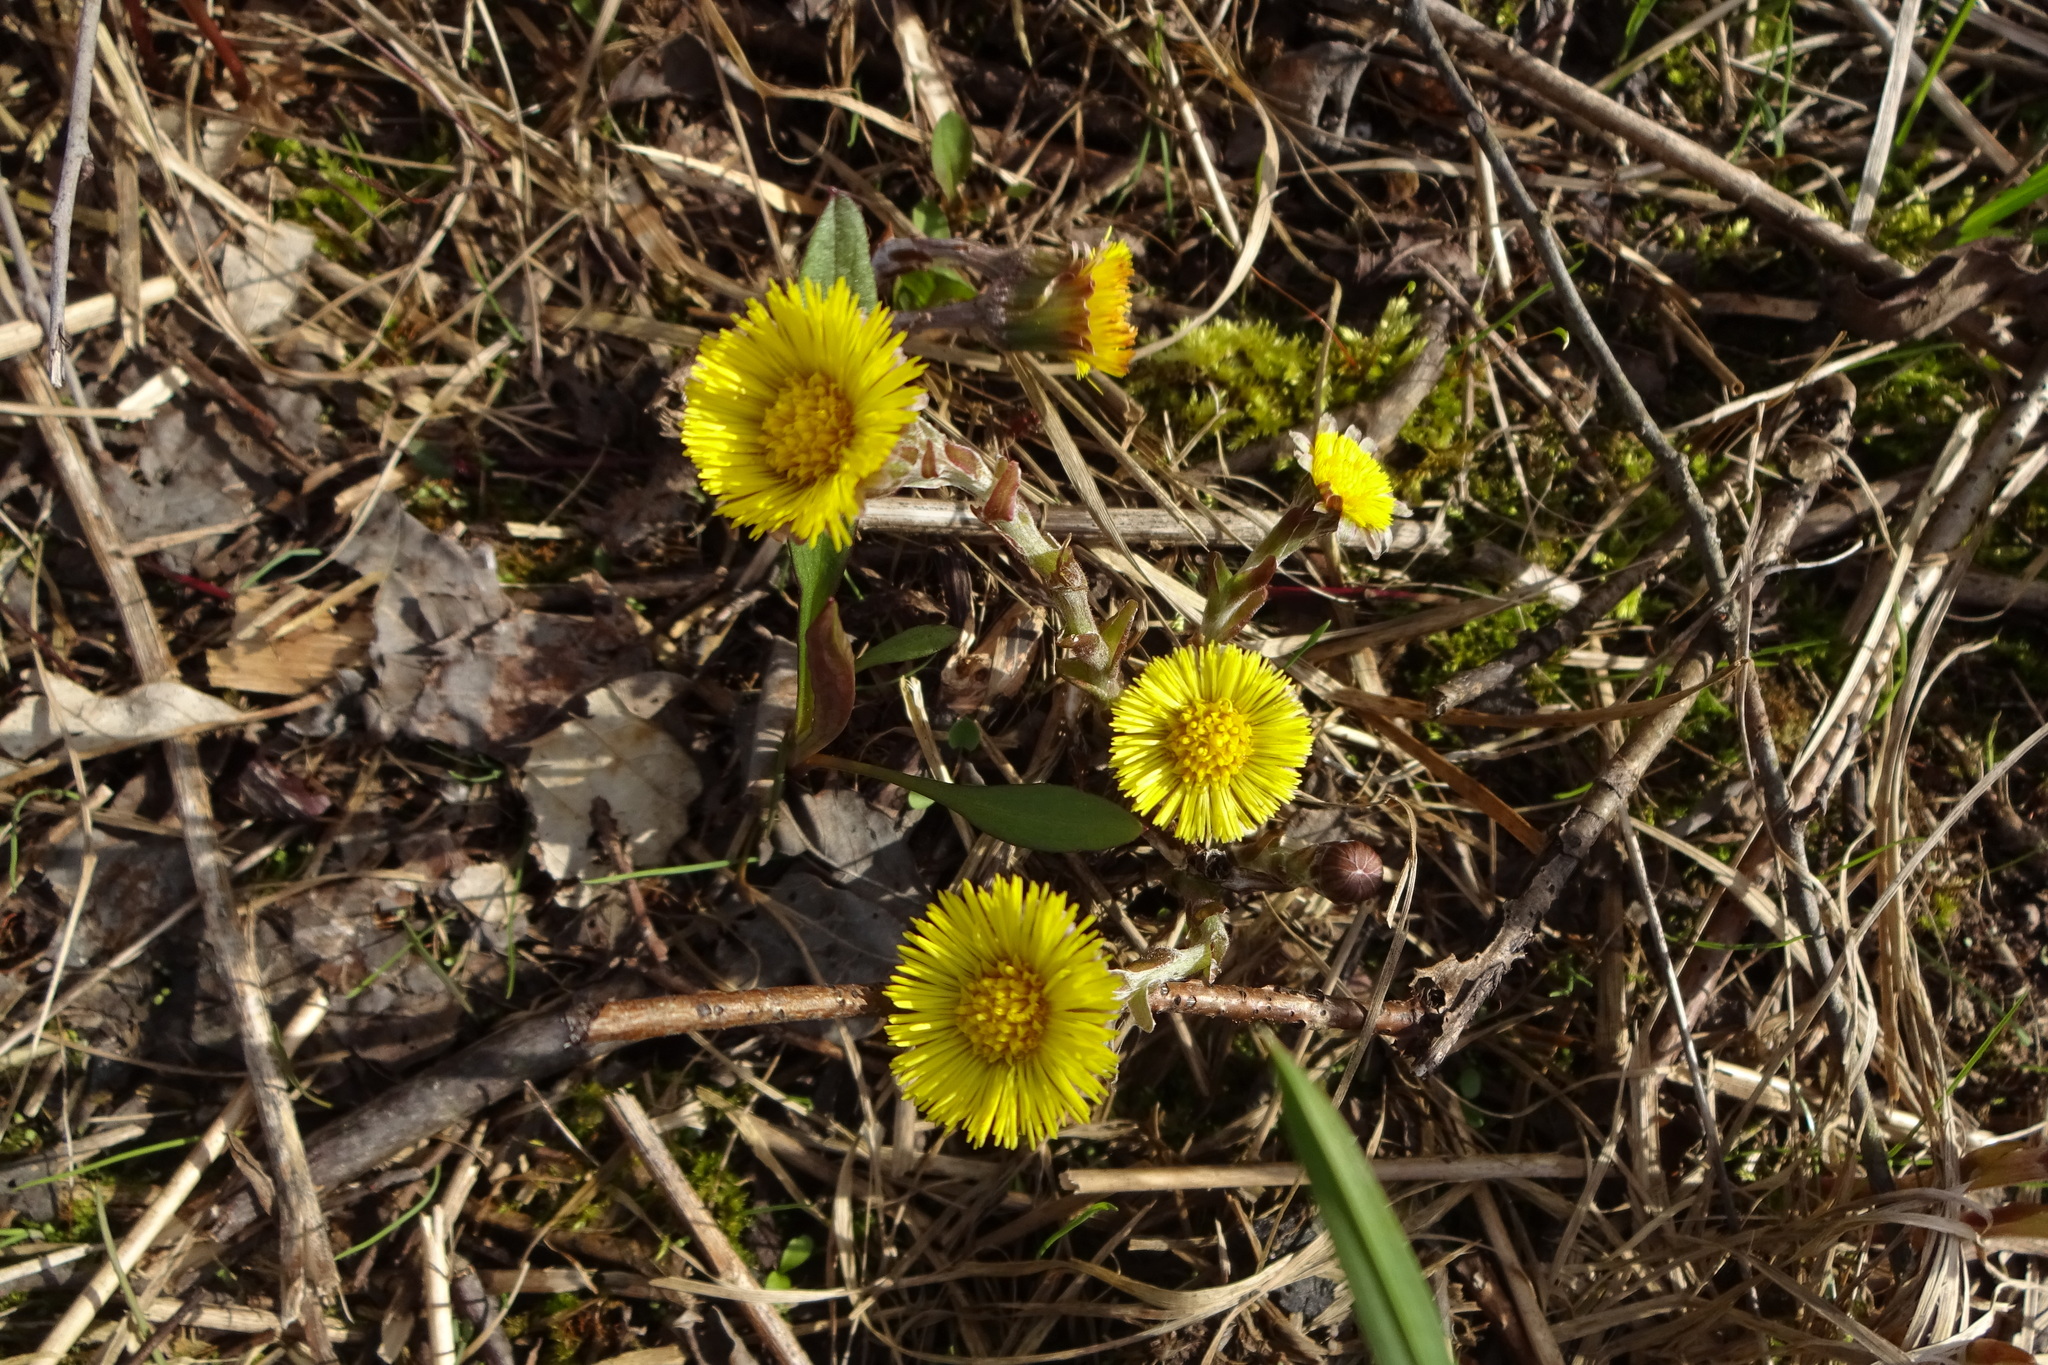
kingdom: Plantae
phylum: Tracheophyta
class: Magnoliopsida
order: Asterales
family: Asteraceae
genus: Tussilago
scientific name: Tussilago farfara
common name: Coltsfoot
